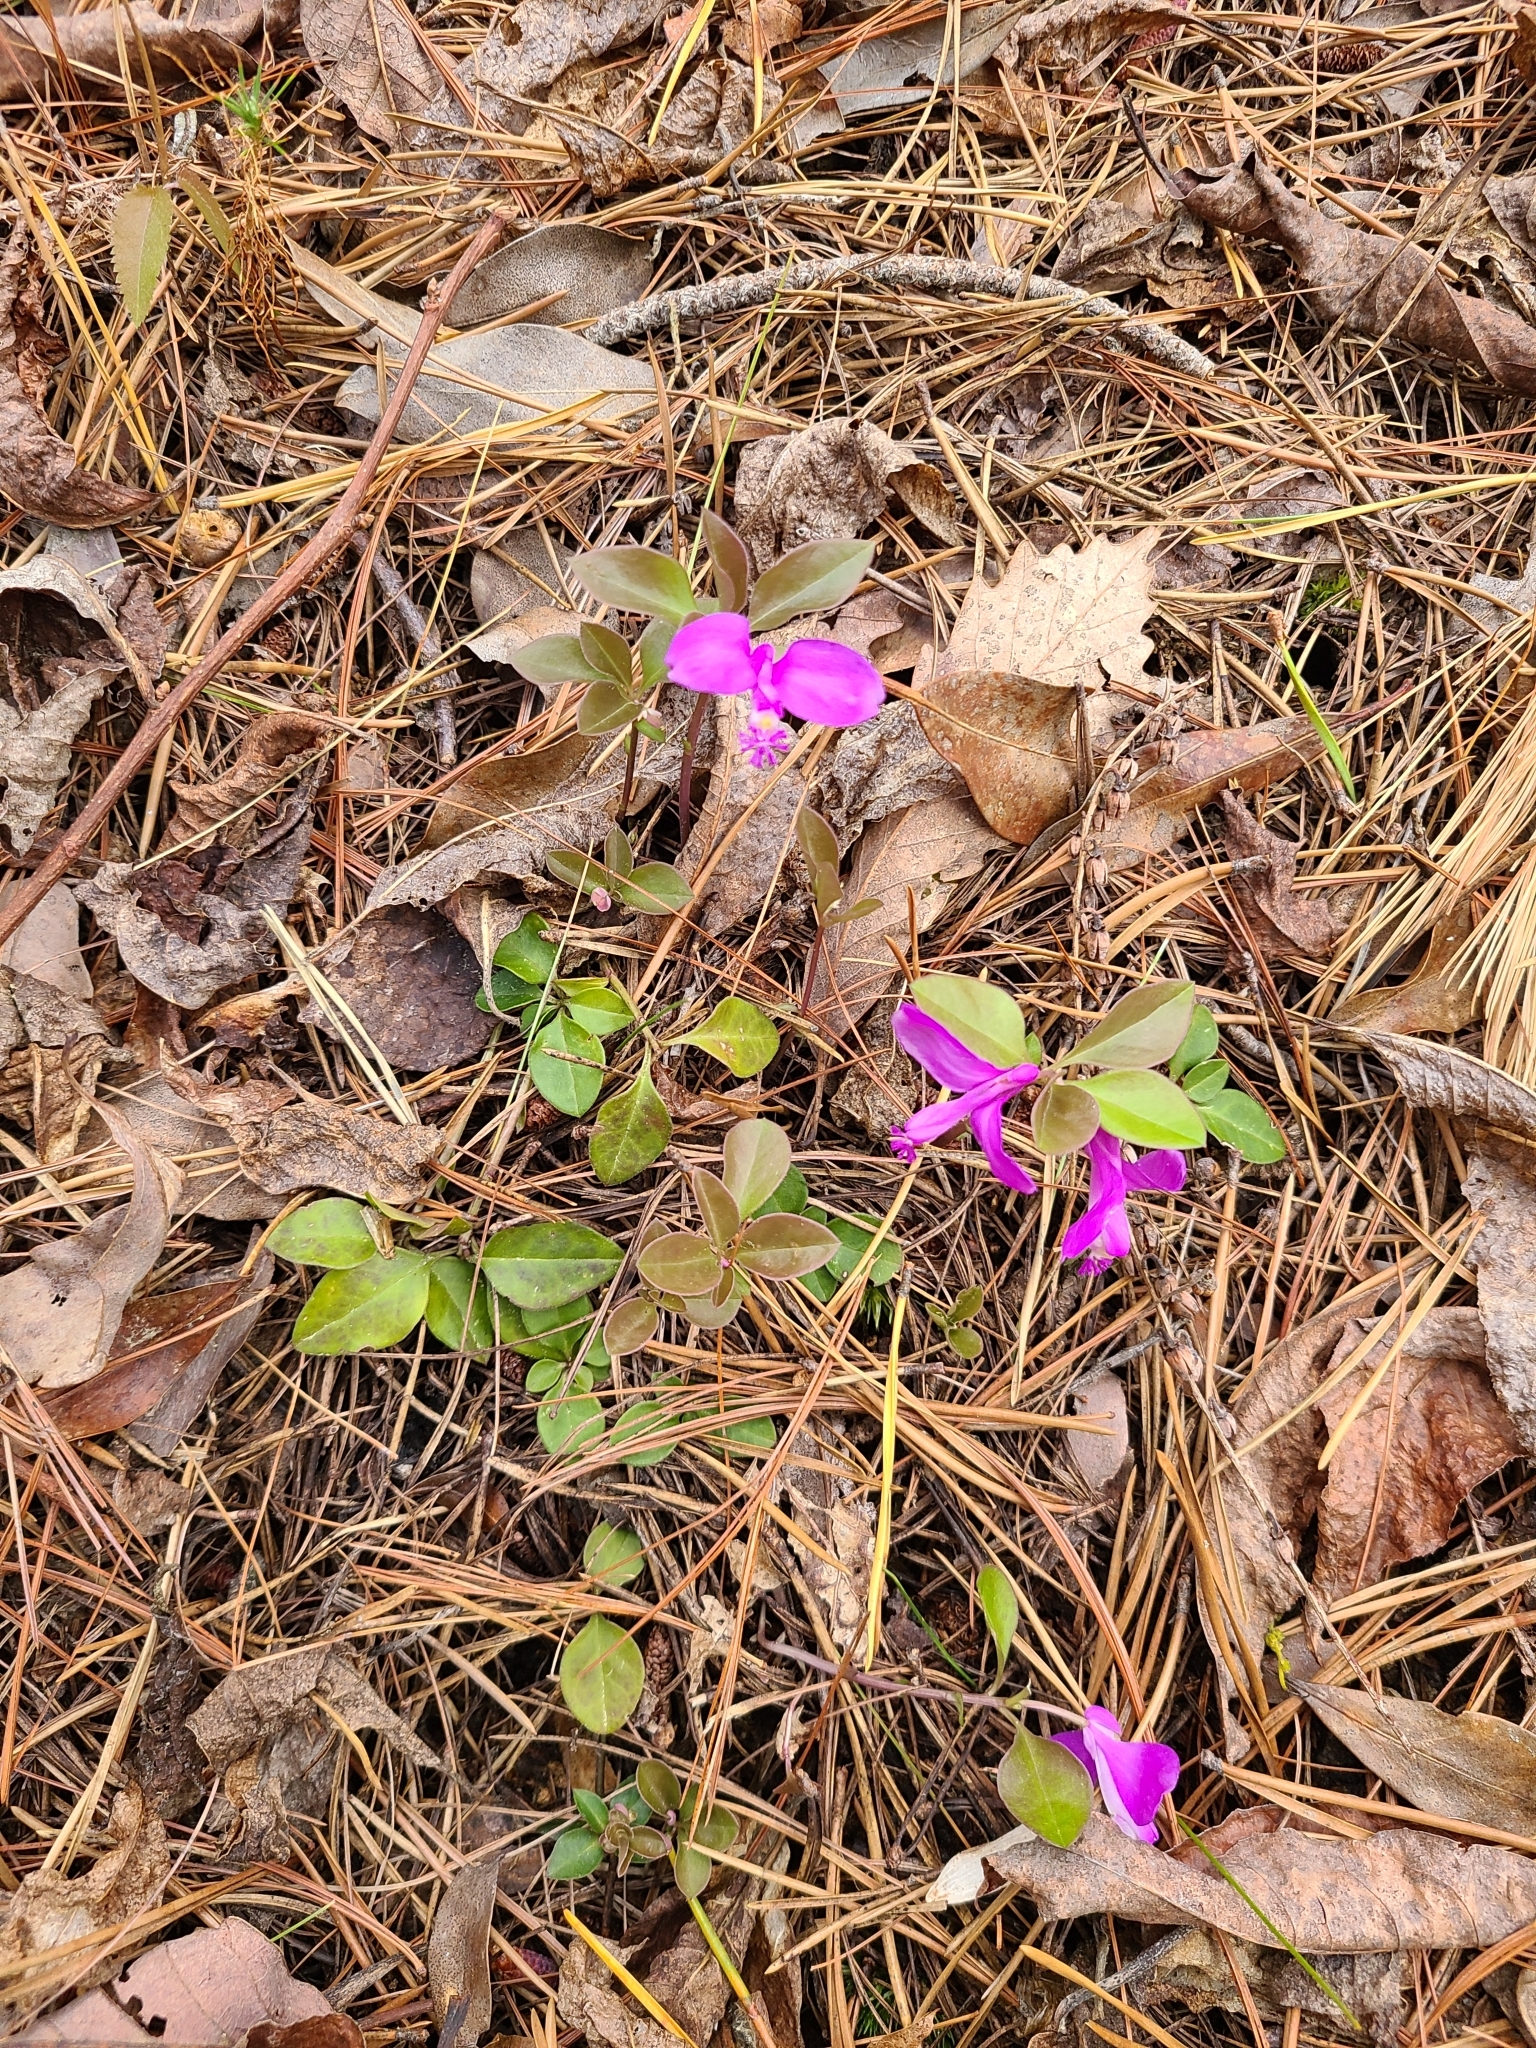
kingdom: Plantae
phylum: Tracheophyta
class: Magnoliopsida
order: Fabales
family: Polygalaceae
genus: Polygaloides
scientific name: Polygaloides paucifolia
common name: Bird-on-the-wing
